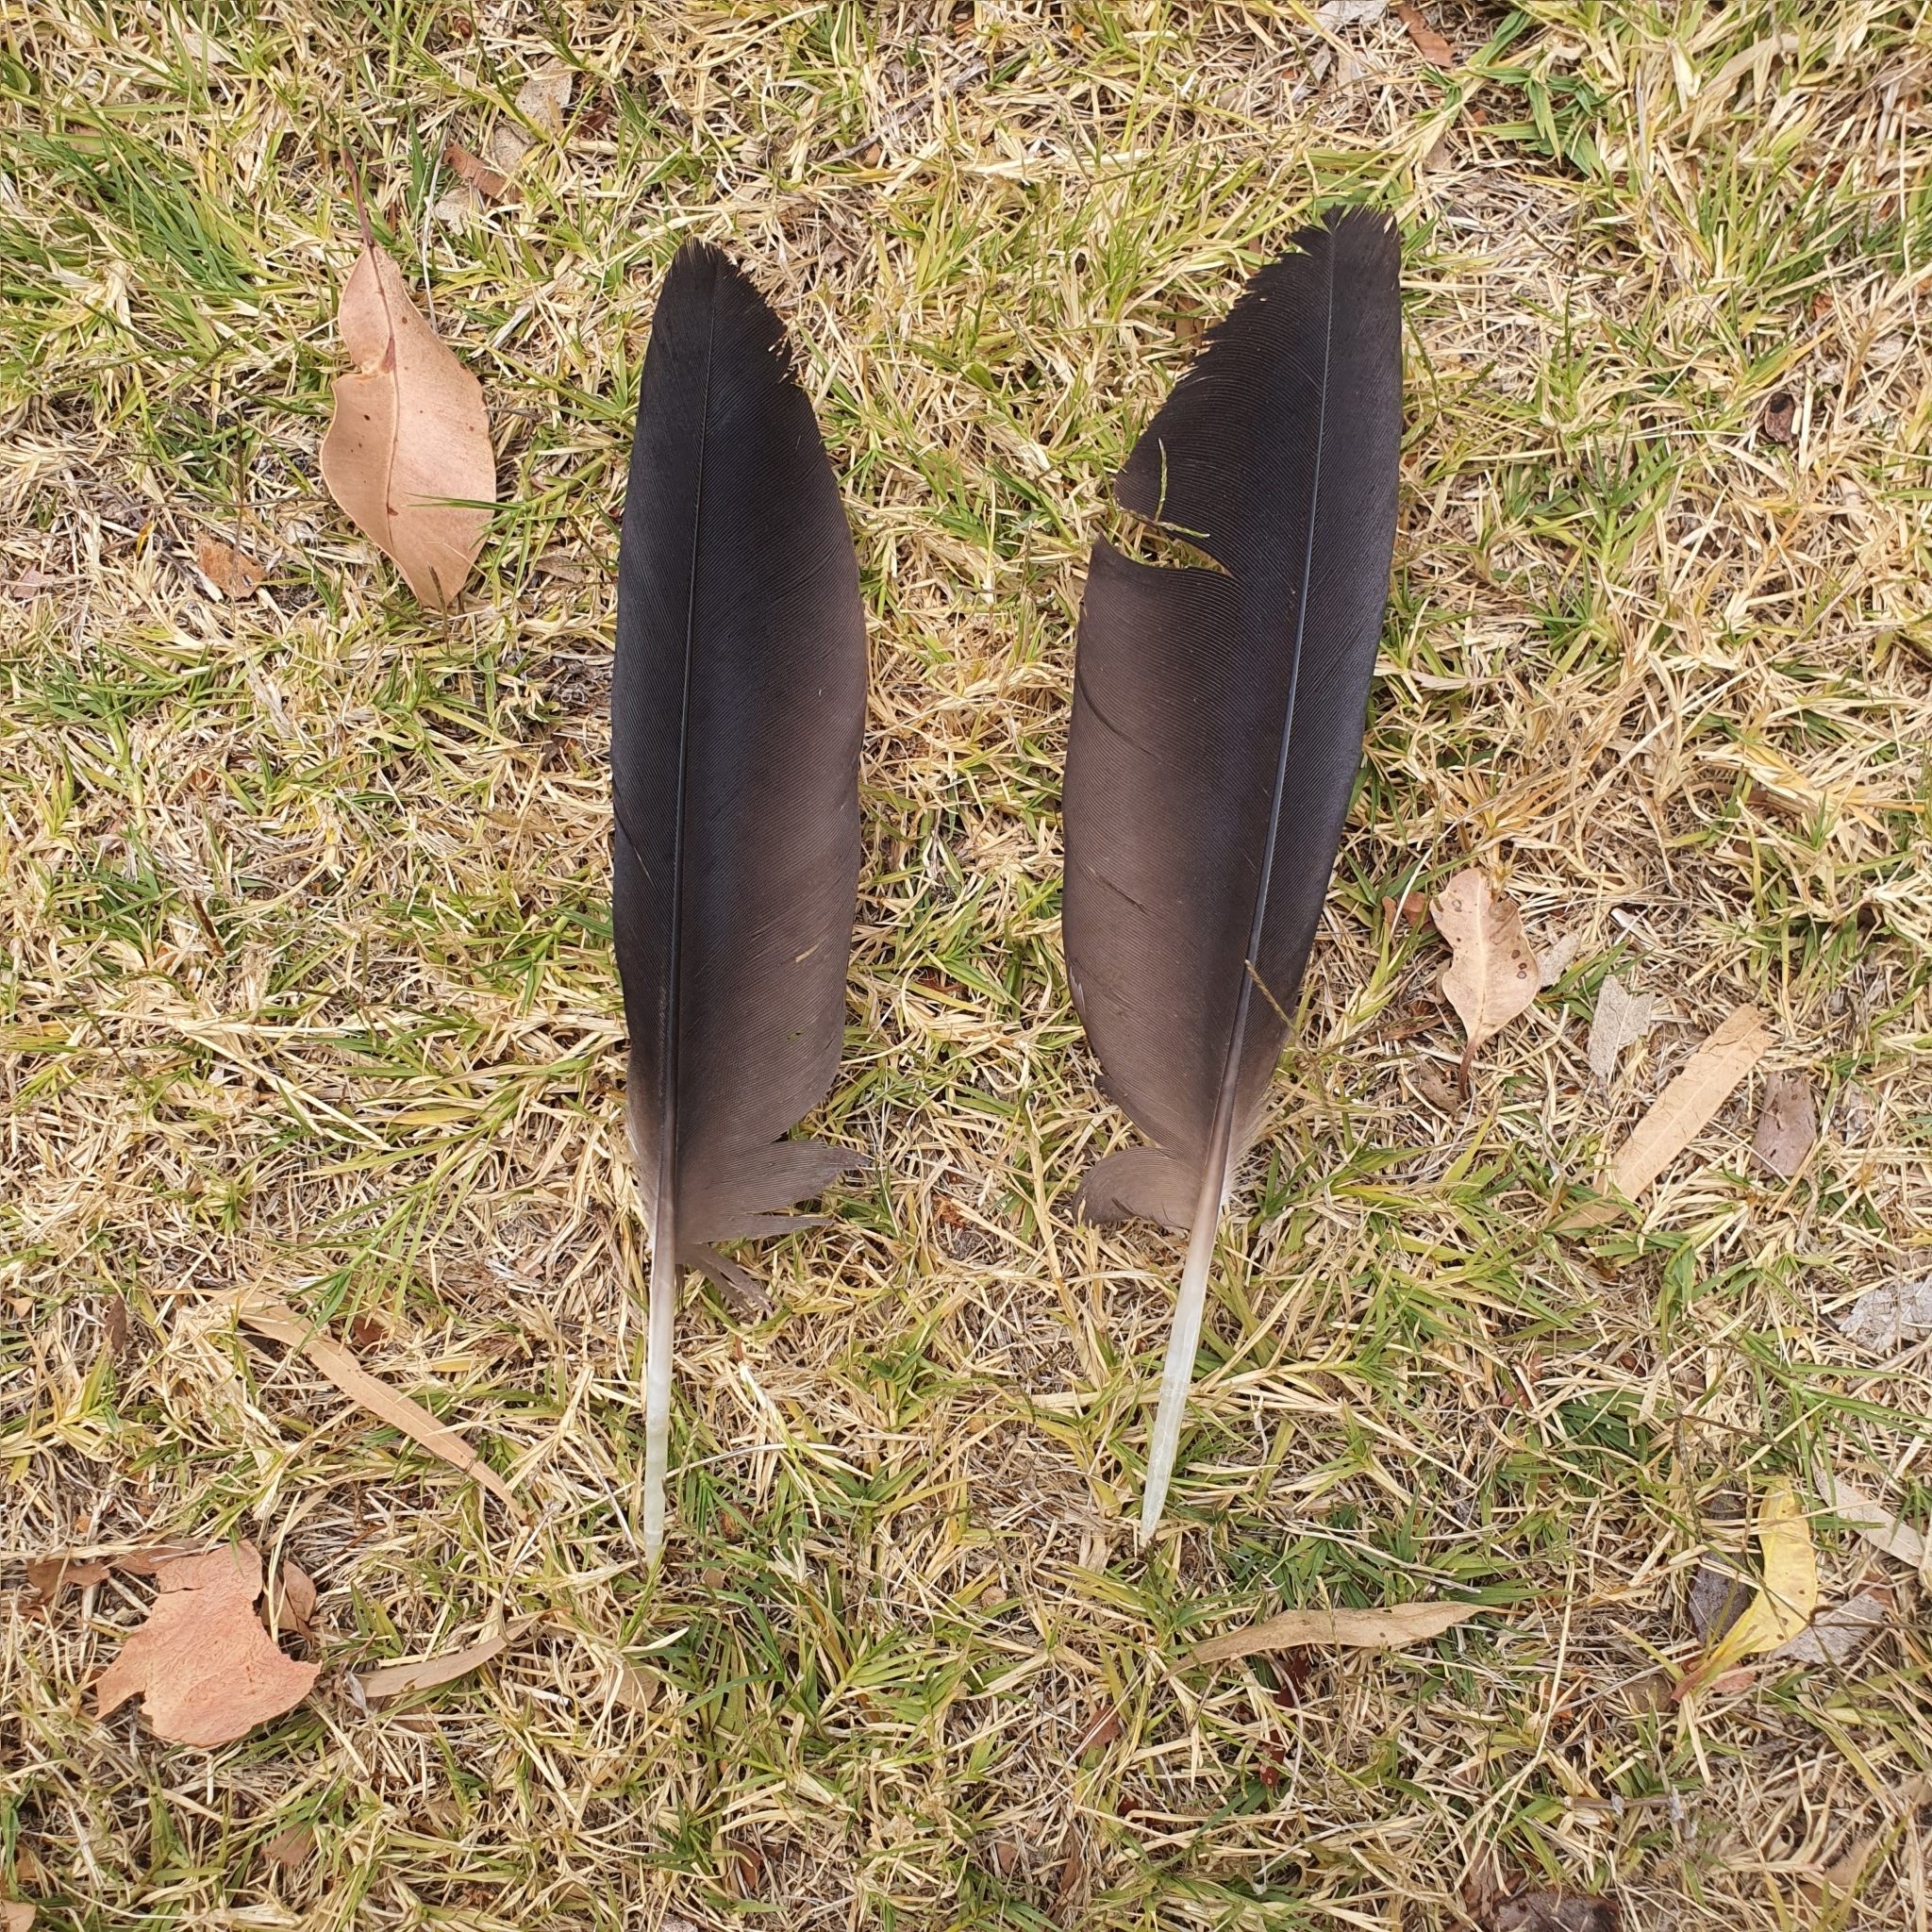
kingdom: Animalia
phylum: Chordata
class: Aves
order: Psittaciformes
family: Psittacidae
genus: Calyptorhynchus
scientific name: Calyptorhynchus banksii
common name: Red-tailed black cockatoo
